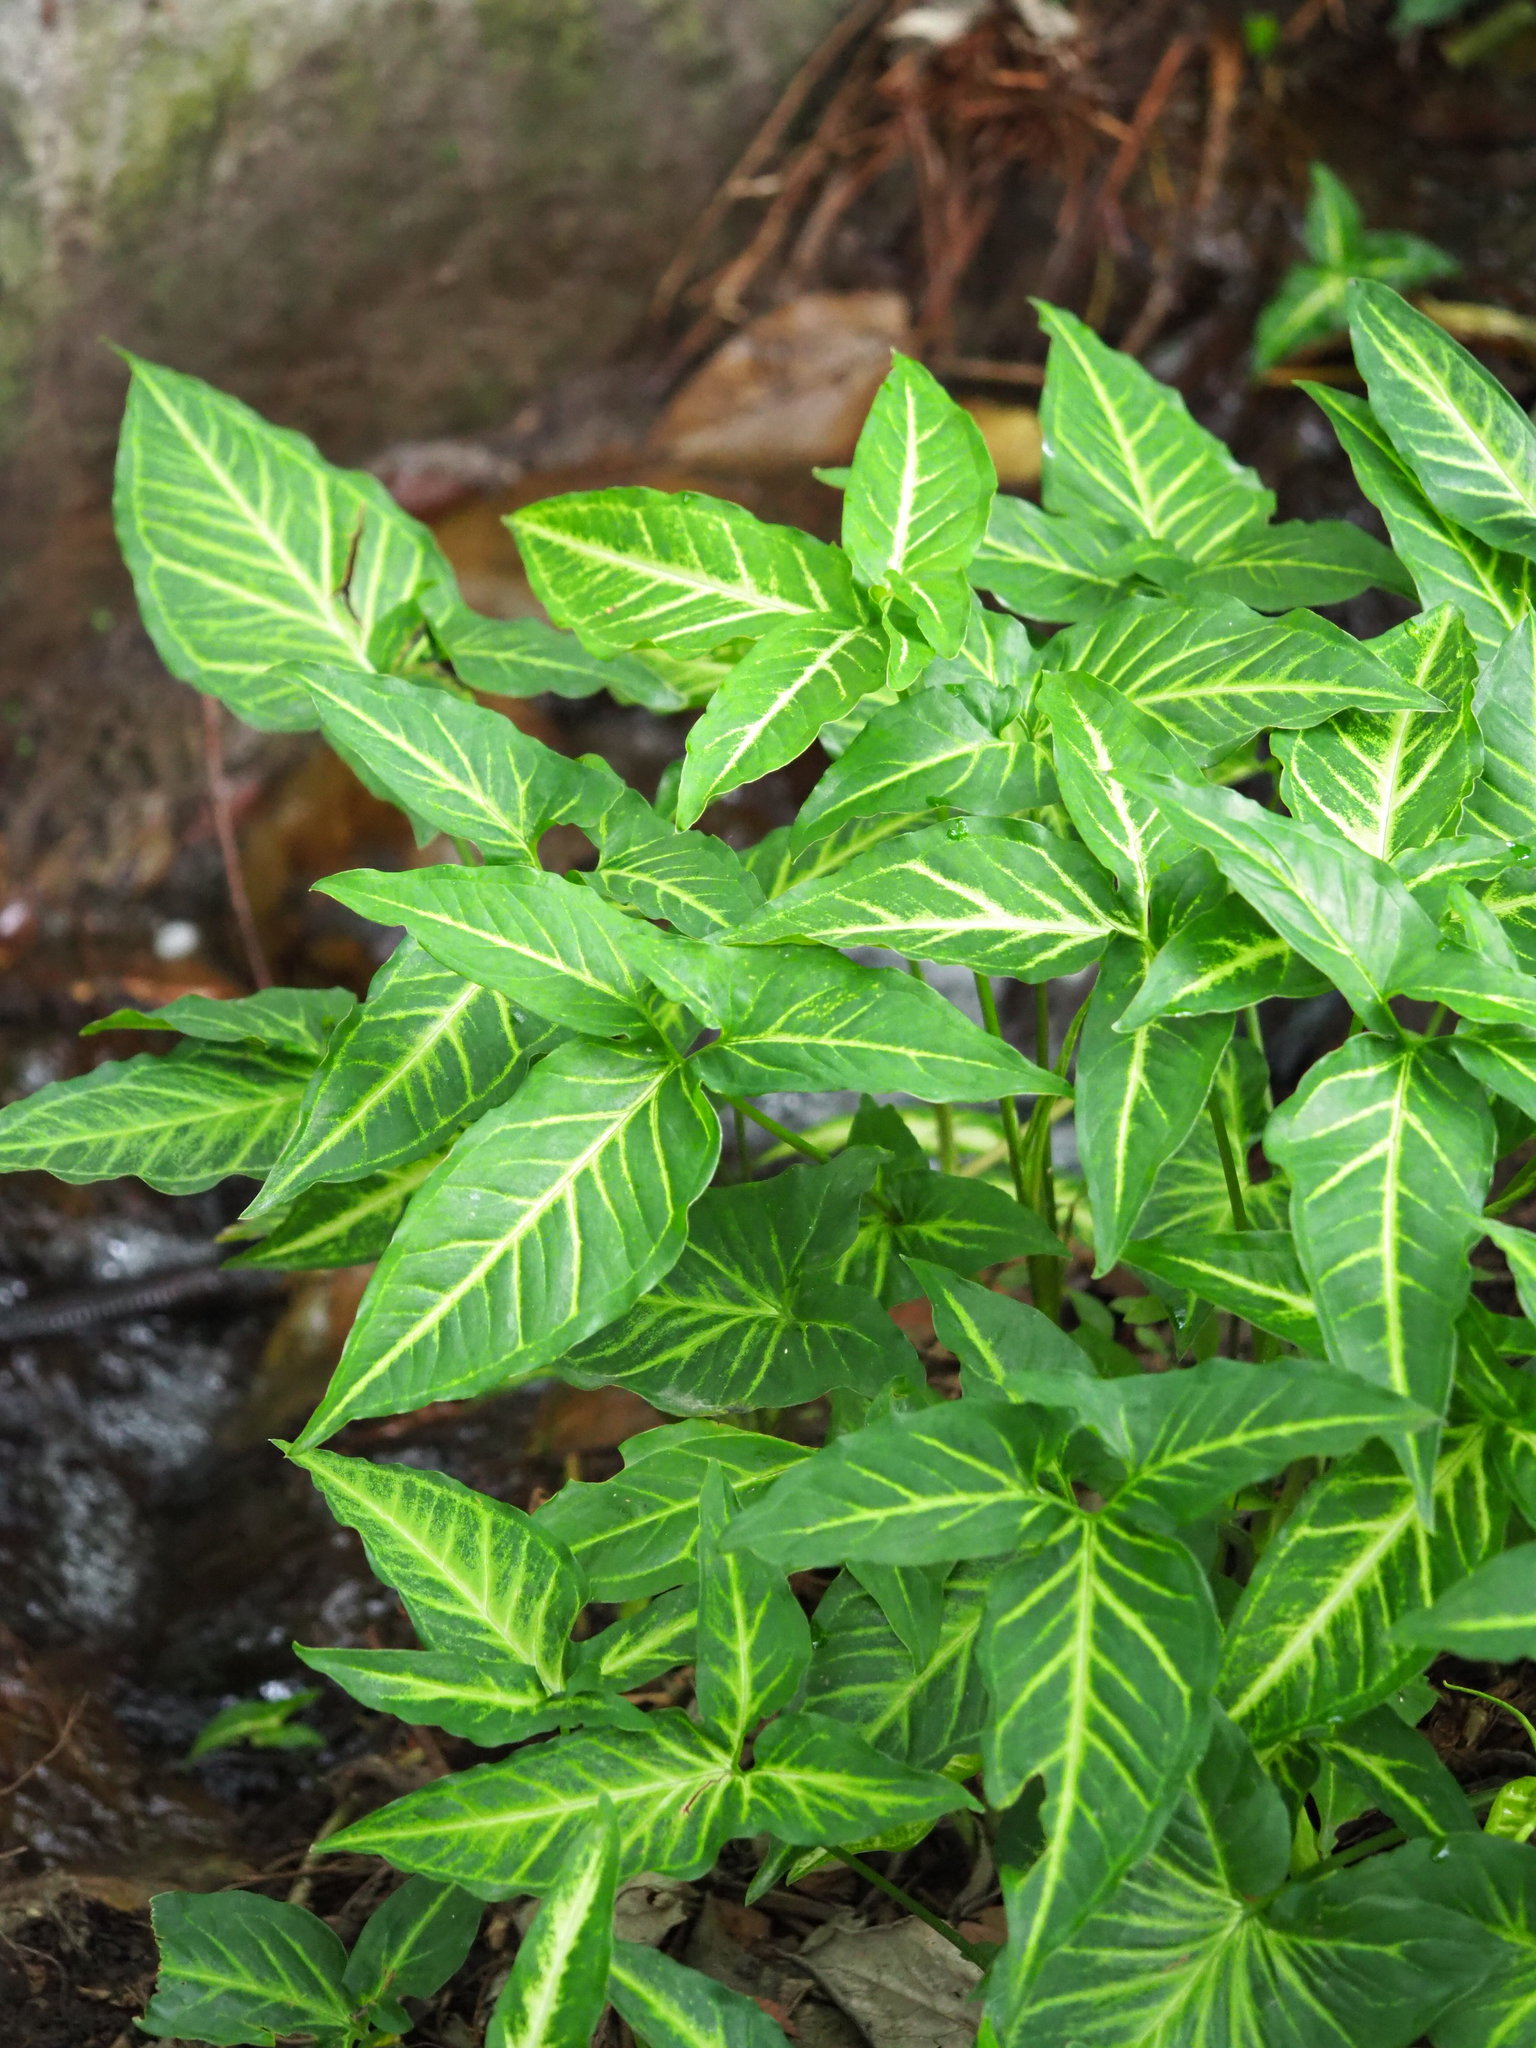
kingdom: Plantae
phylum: Tracheophyta
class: Liliopsida
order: Alismatales
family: Araceae
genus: Syngonium
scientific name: Syngonium podophyllum
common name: American evergreen
